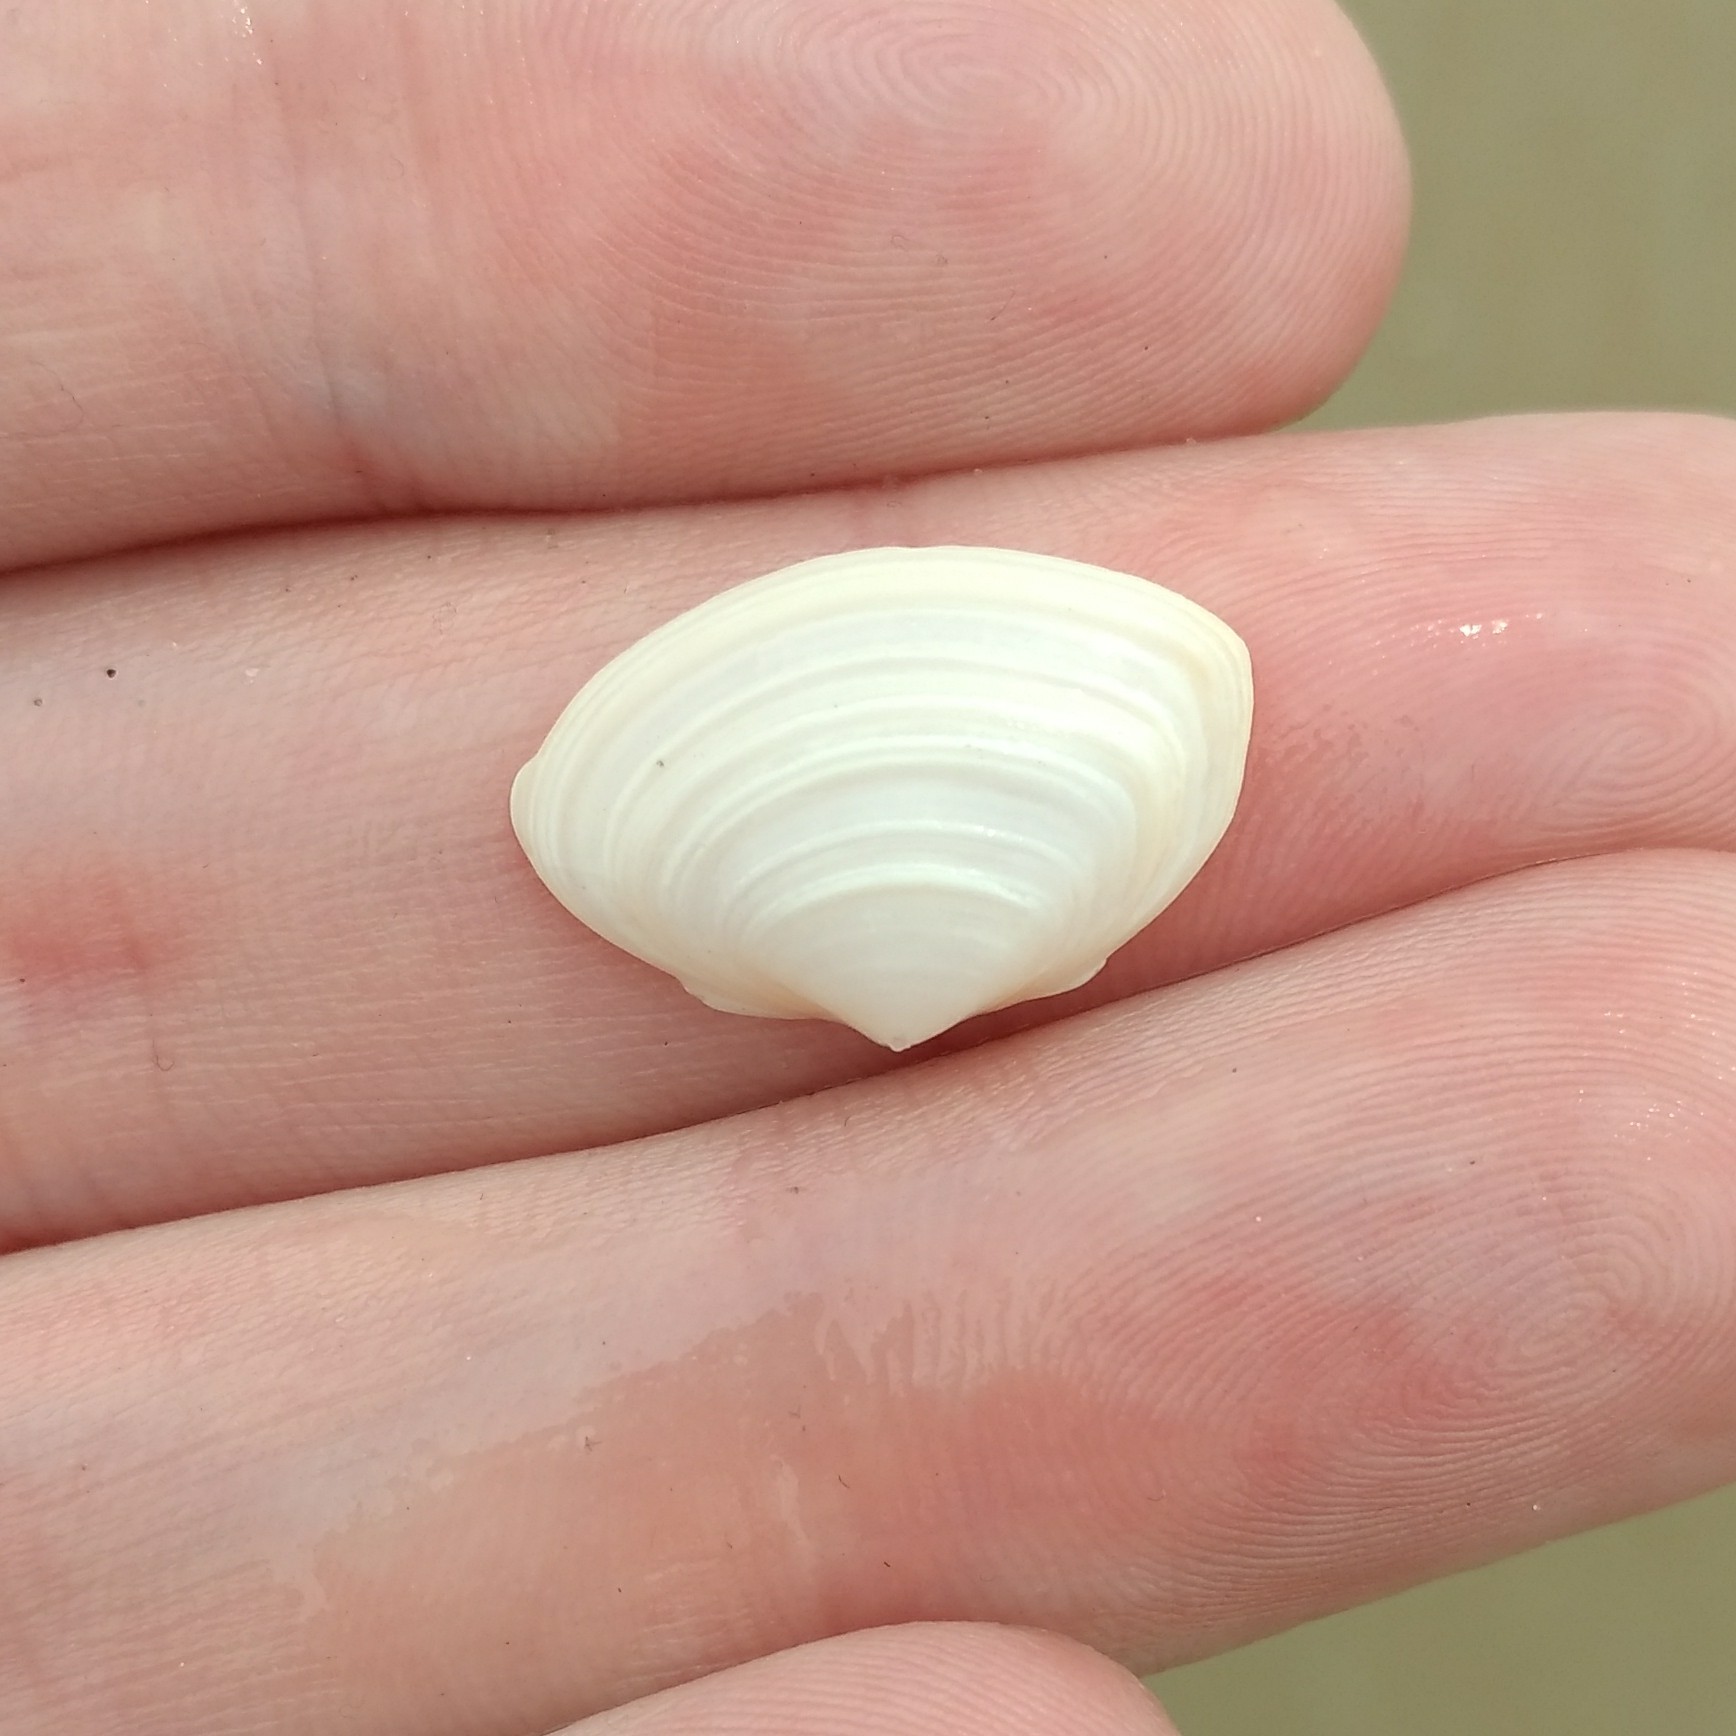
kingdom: Animalia
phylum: Mollusca
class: Bivalvia
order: Venerida
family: Mactridae
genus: Spisula
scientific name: Spisula solidissima
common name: Atlantic surf clam
